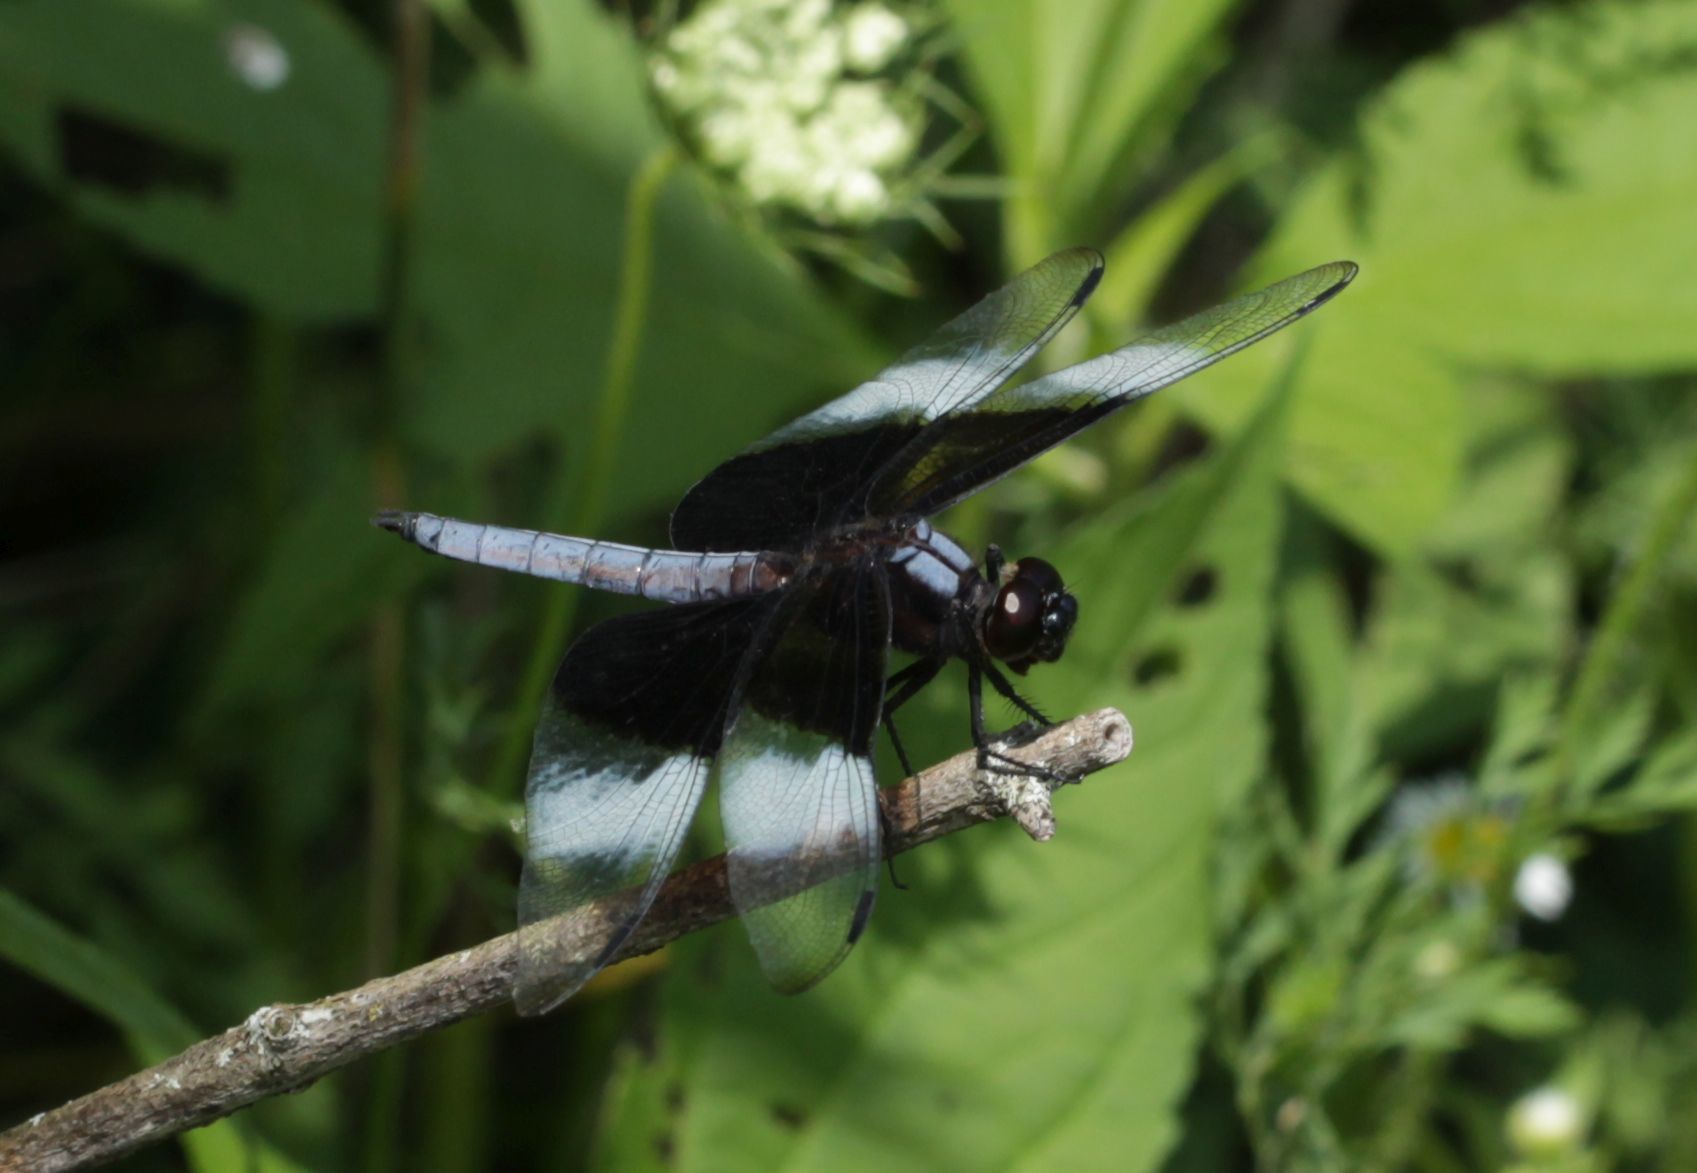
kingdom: Animalia
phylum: Arthropoda
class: Insecta
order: Odonata
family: Libellulidae
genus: Libellula
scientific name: Libellula luctuosa
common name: Widow skimmer
